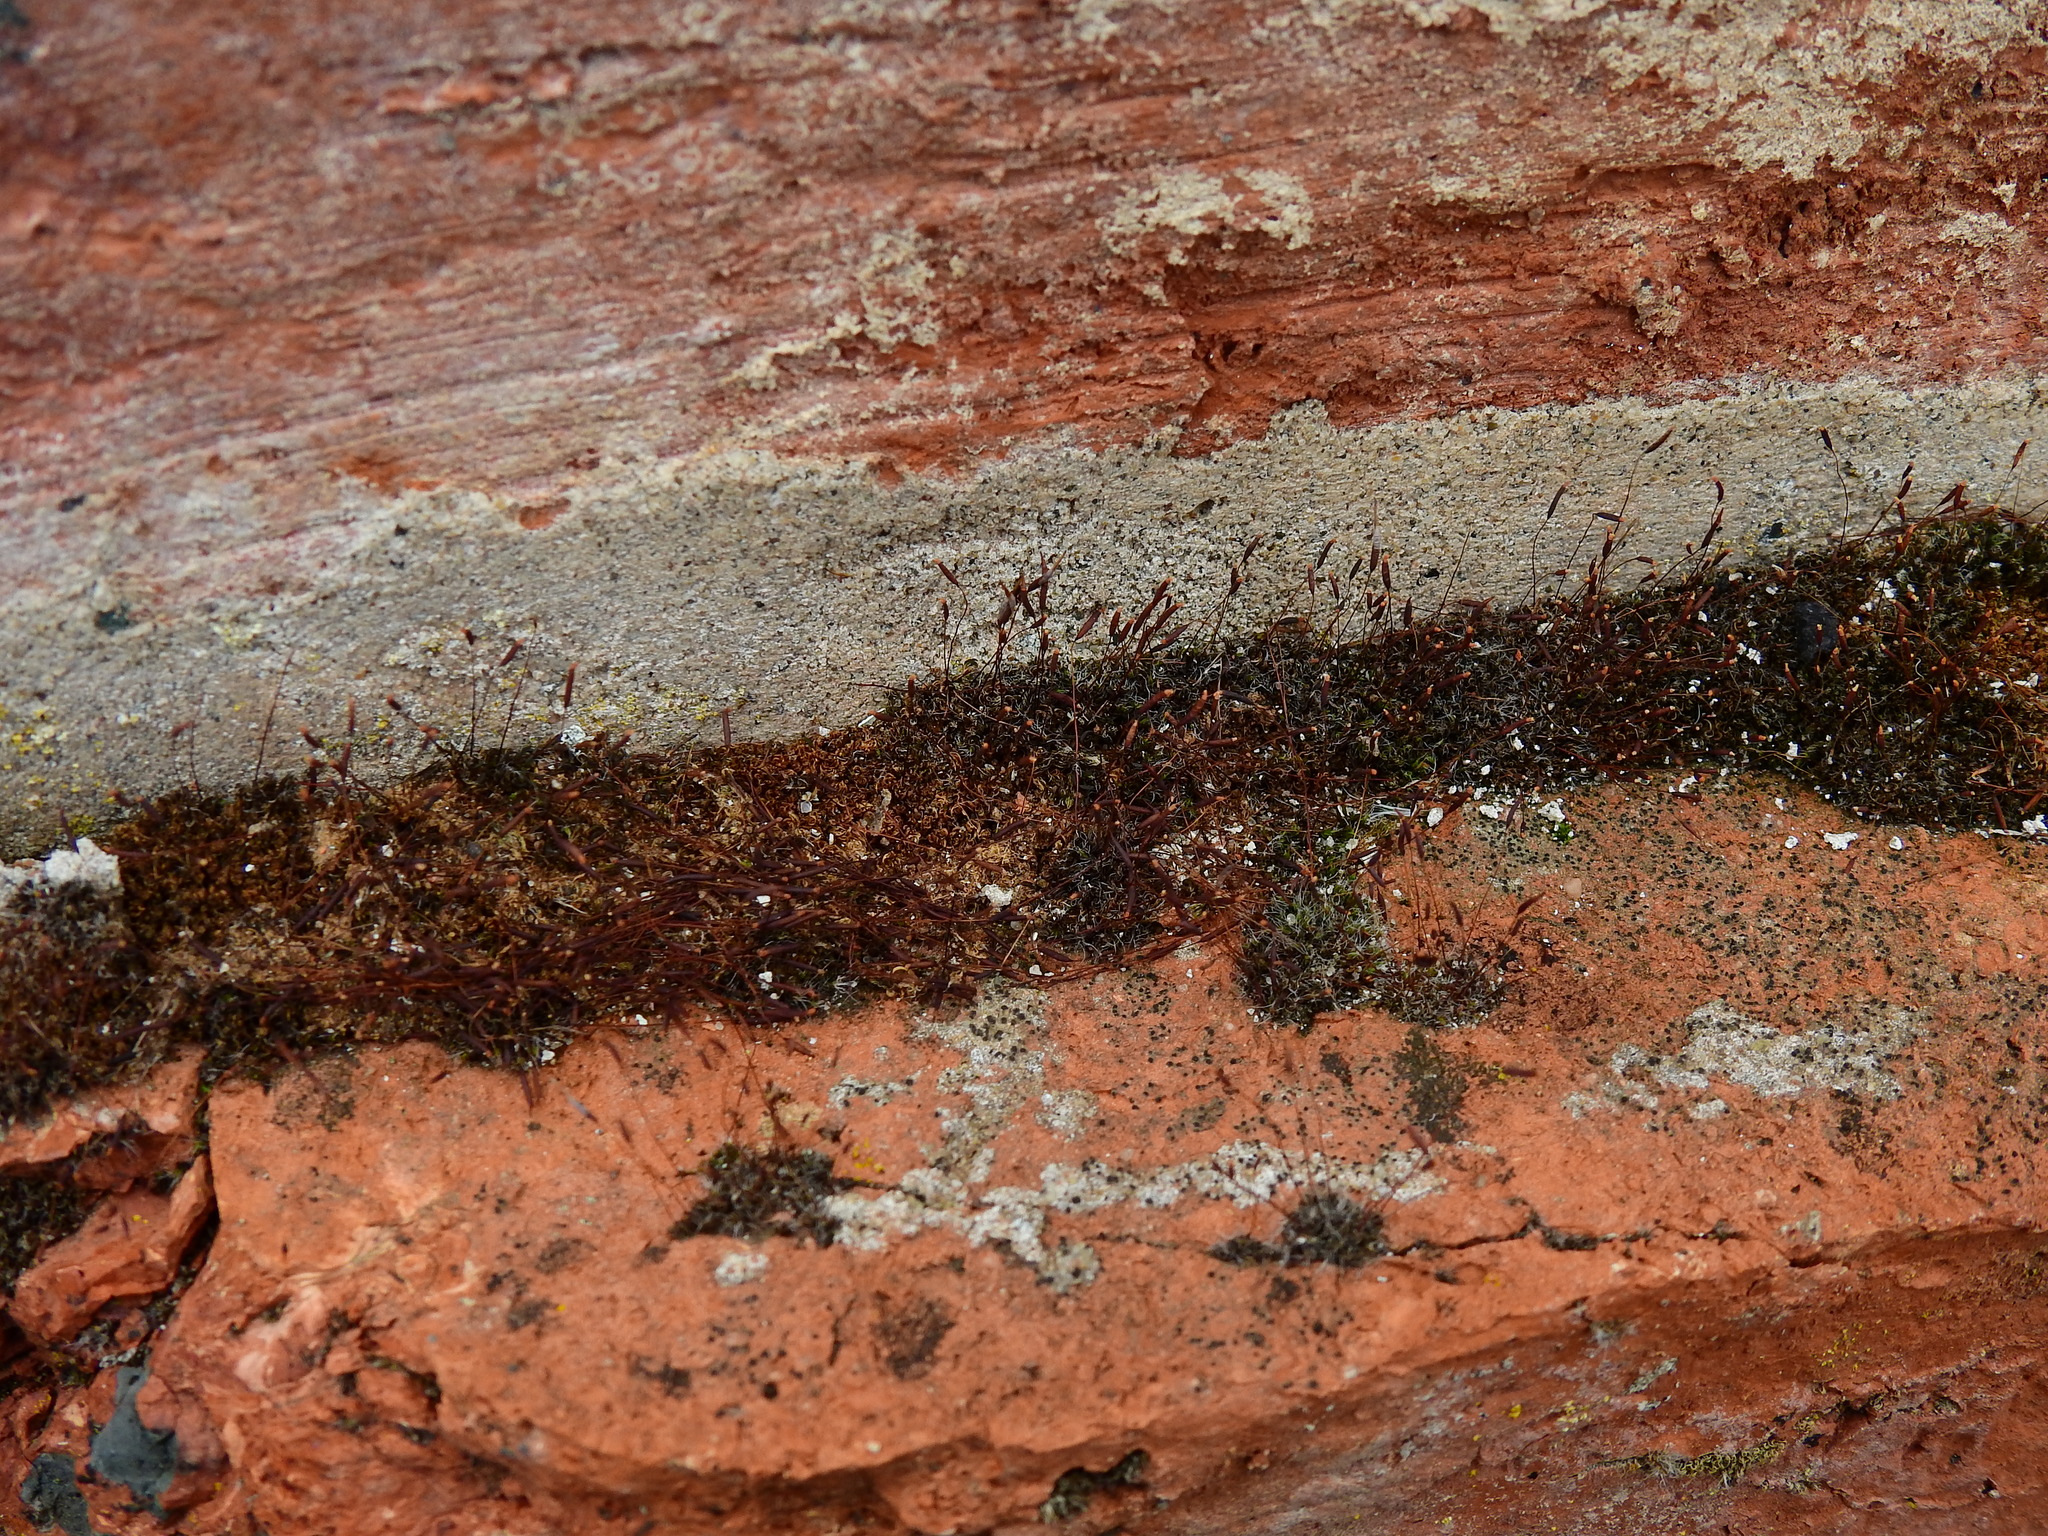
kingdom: Plantae
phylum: Bryophyta
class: Bryopsida
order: Pottiales
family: Pottiaceae
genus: Tortula
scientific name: Tortula muralis
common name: Wall screw-moss
